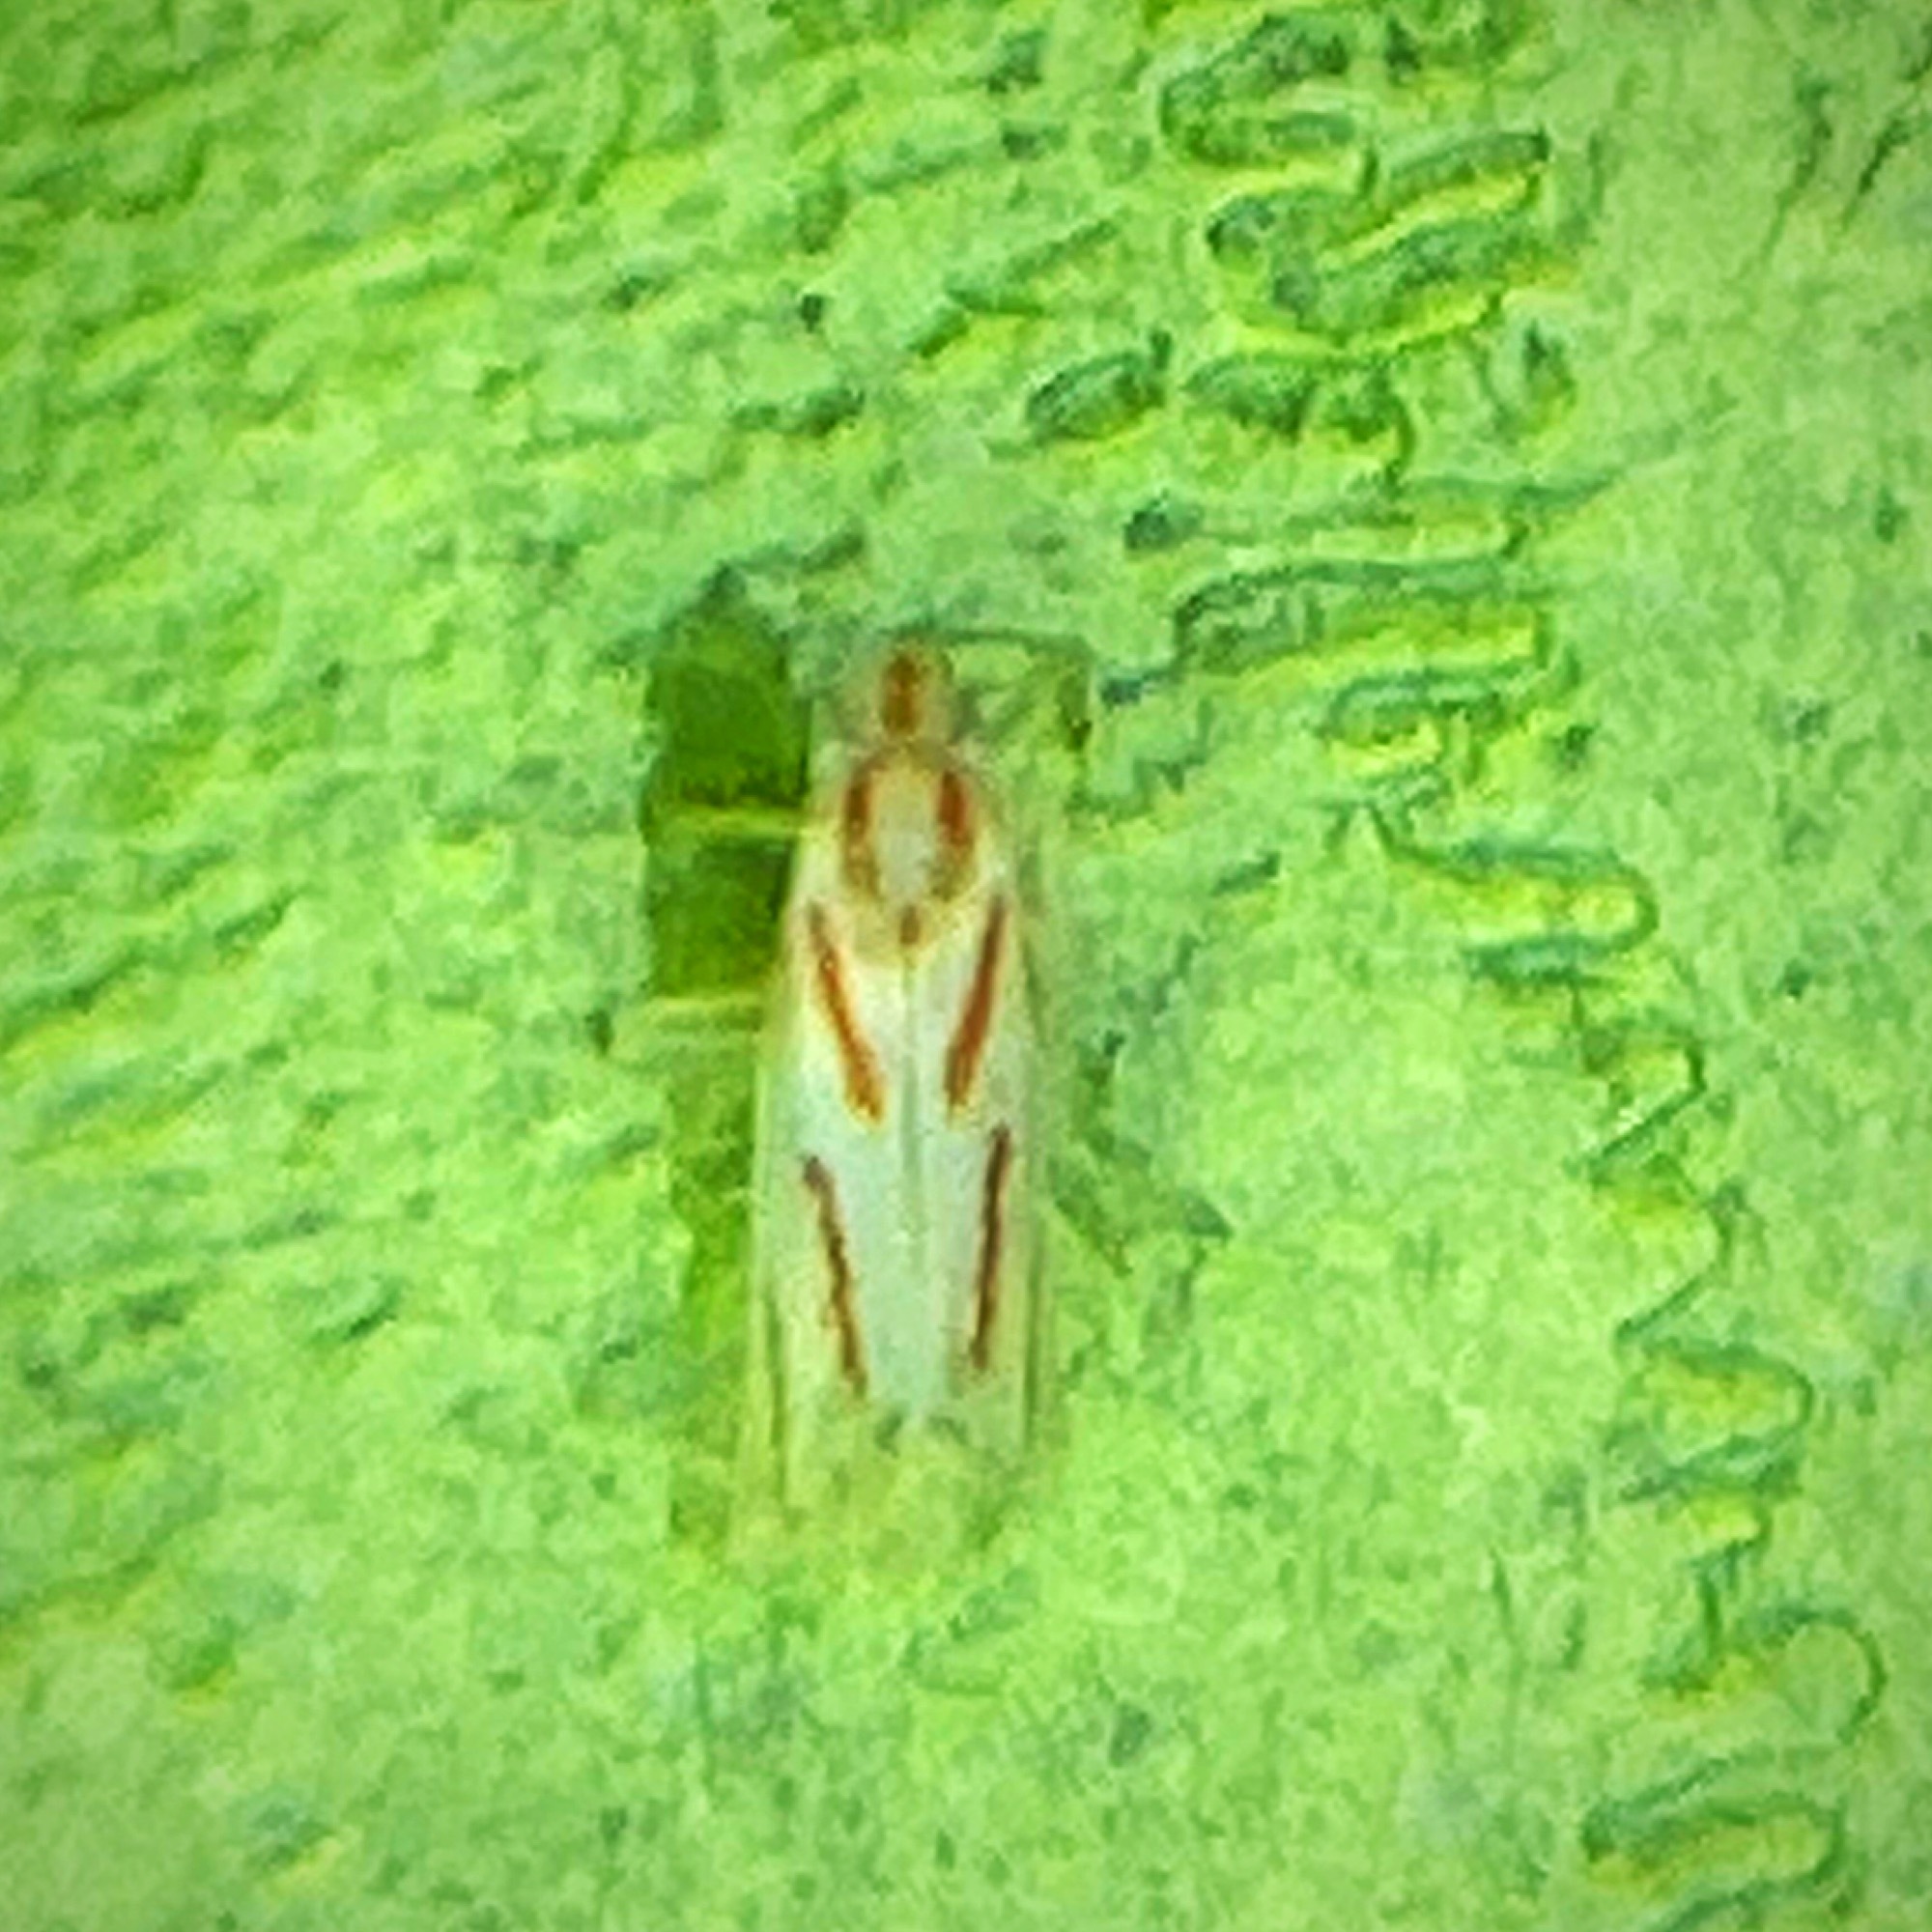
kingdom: Animalia
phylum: Arthropoda
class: Insecta
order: Hemiptera
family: Cicadellidae
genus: Dikrella
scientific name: Dikrella cruentata
